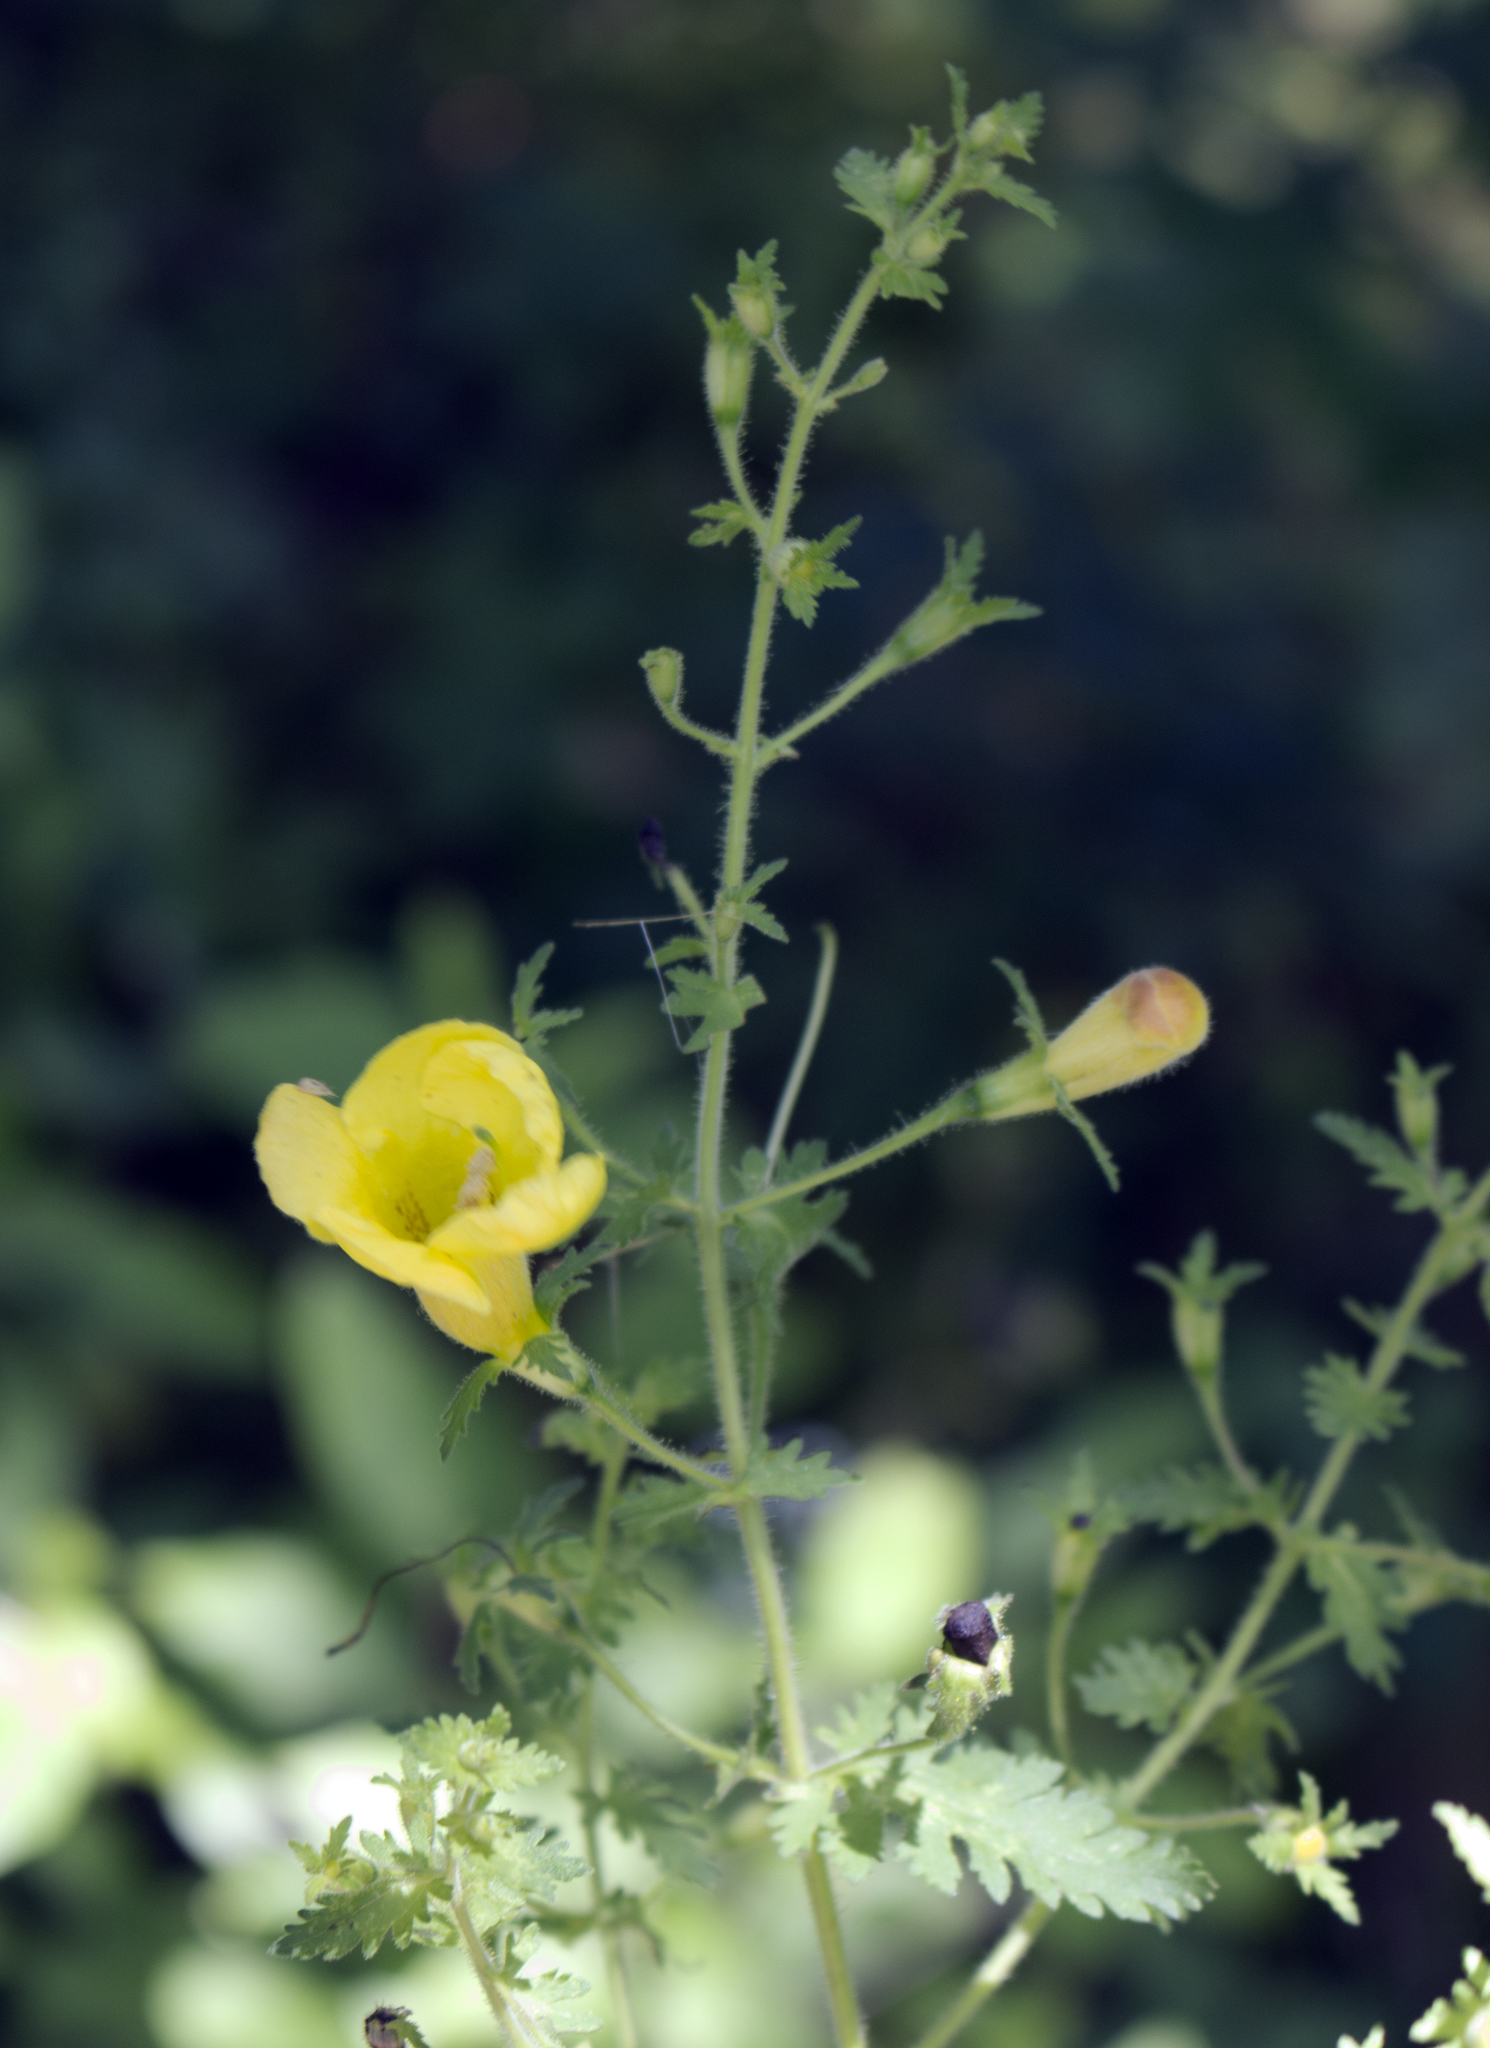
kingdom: Plantae
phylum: Tracheophyta
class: Magnoliopsida
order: Lamiales
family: Orobanchaceae
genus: Aureolaria
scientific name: Aureolaria pedicularia
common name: Annual false foxglove
